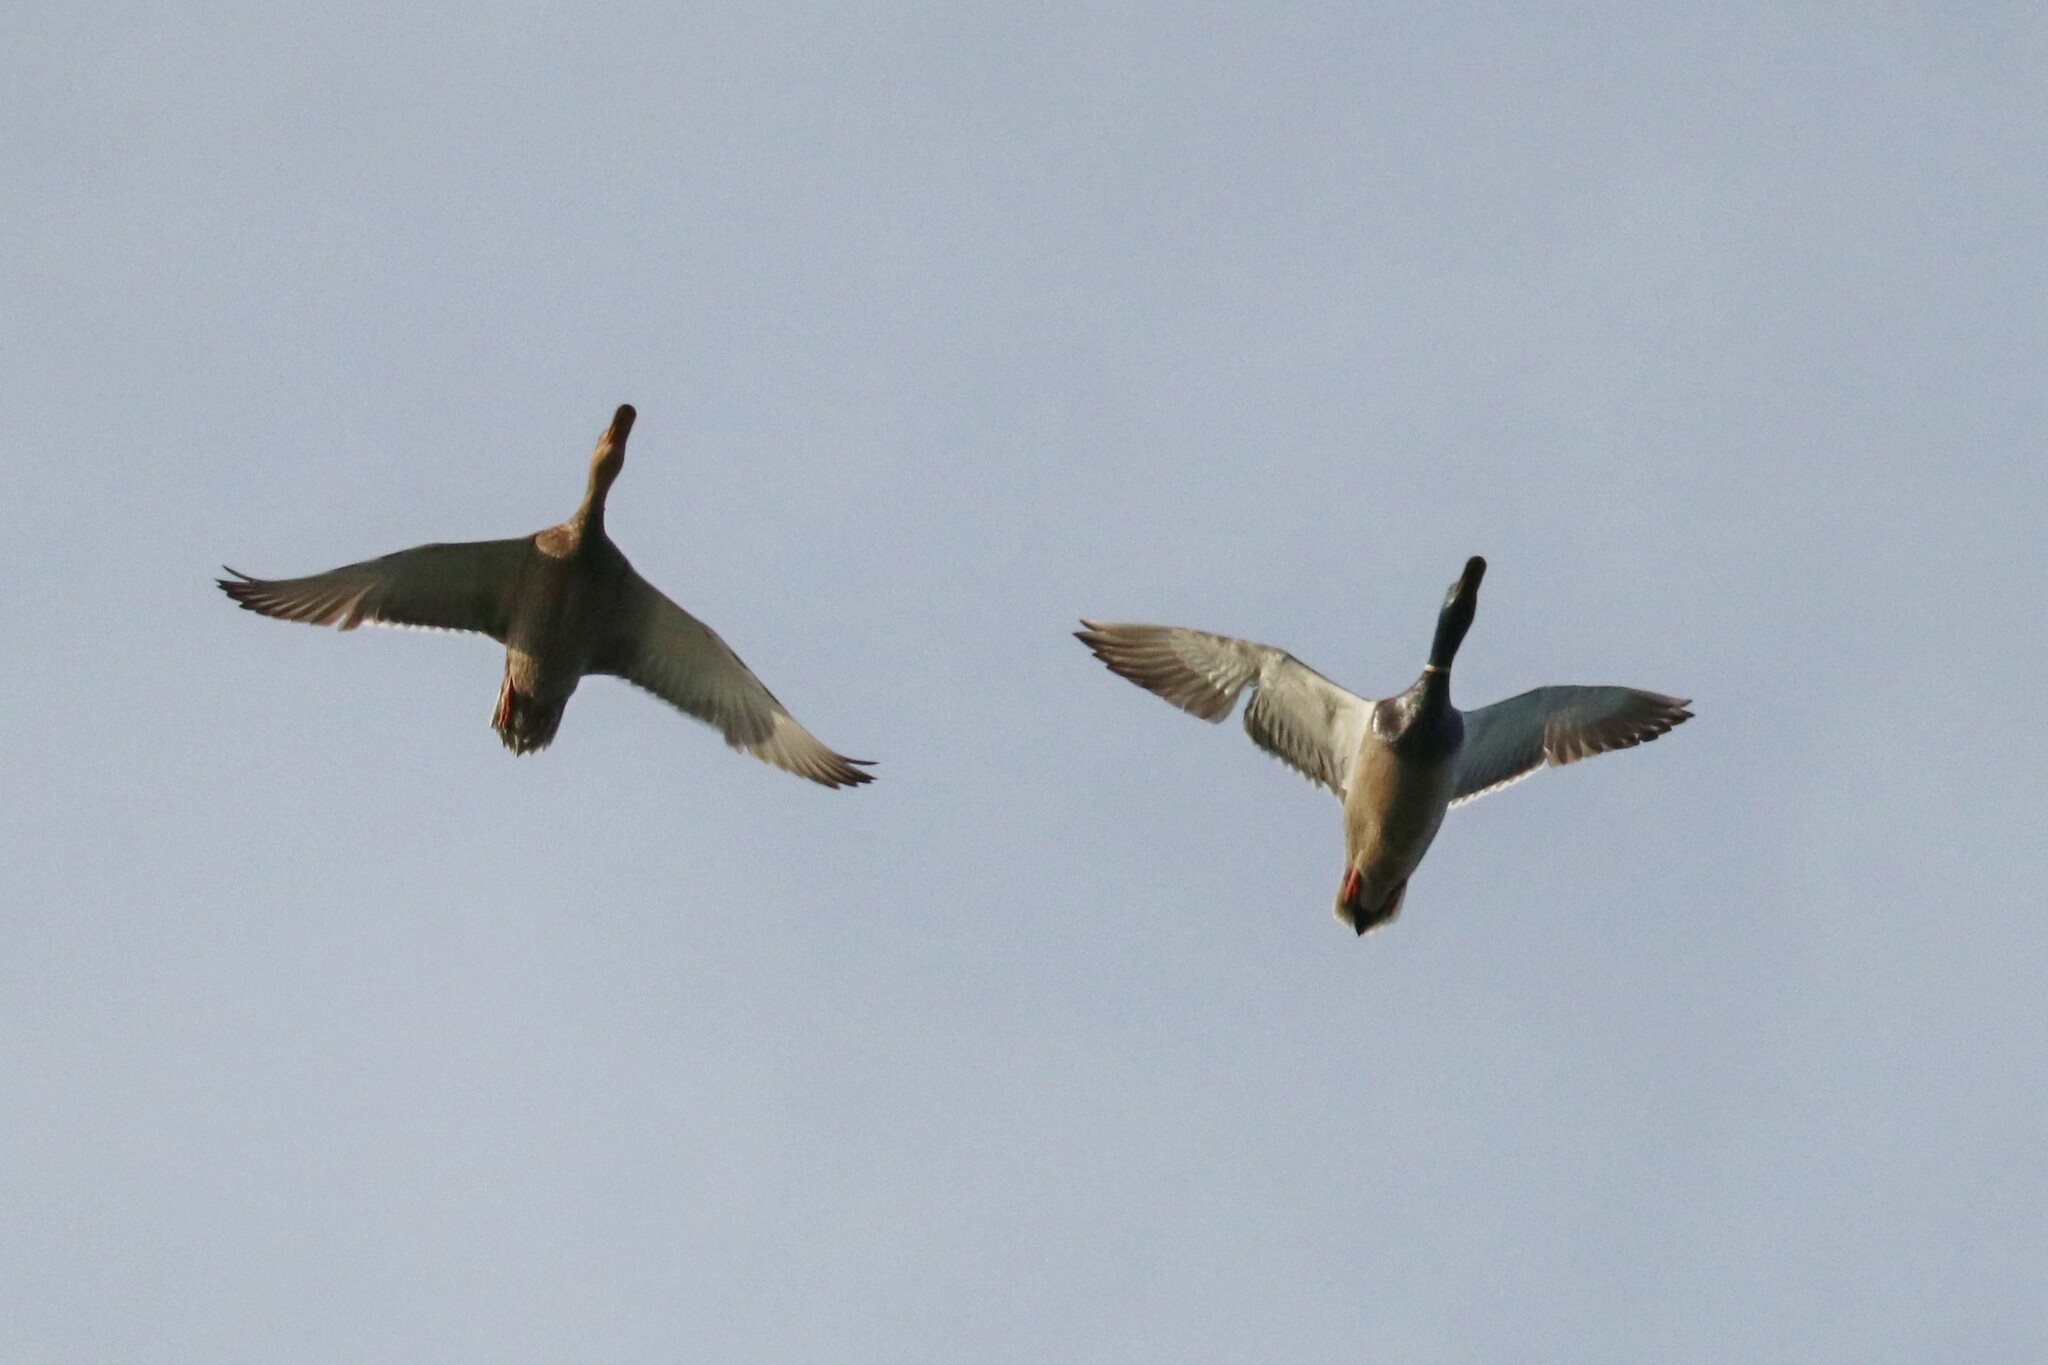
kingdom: Animalia
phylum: Chordata
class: Aves
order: Anseriformes
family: Anatidae
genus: Anas
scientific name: Anas platyrhynchos
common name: Mallard
